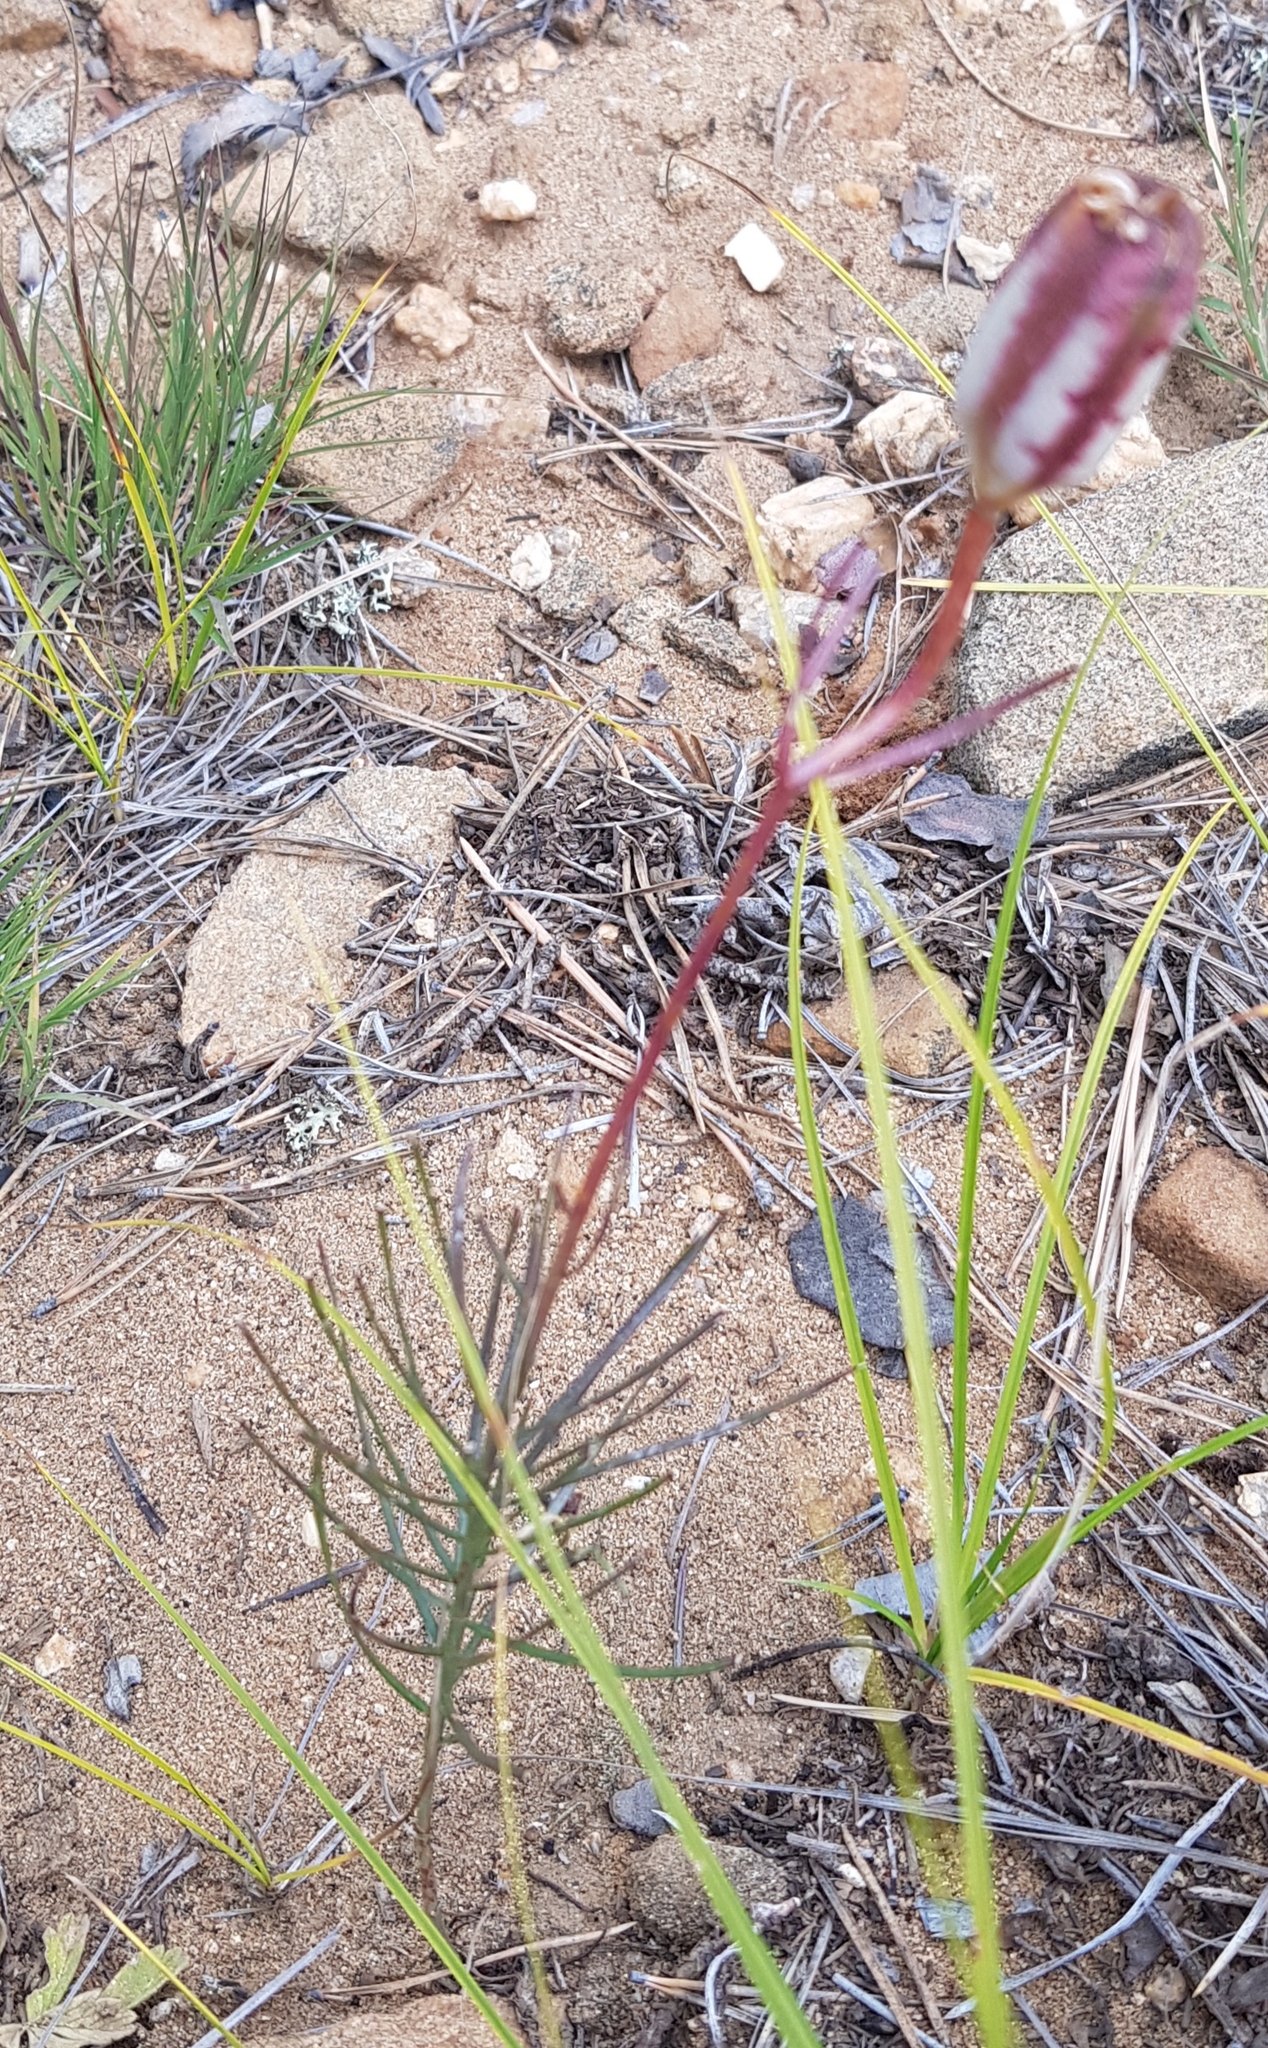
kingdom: Plantae
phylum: Tracheophyta
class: Liliopsida
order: Liliales
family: Liliaceae
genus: Lilium
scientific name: Lilium pumilum
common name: Coral lily
